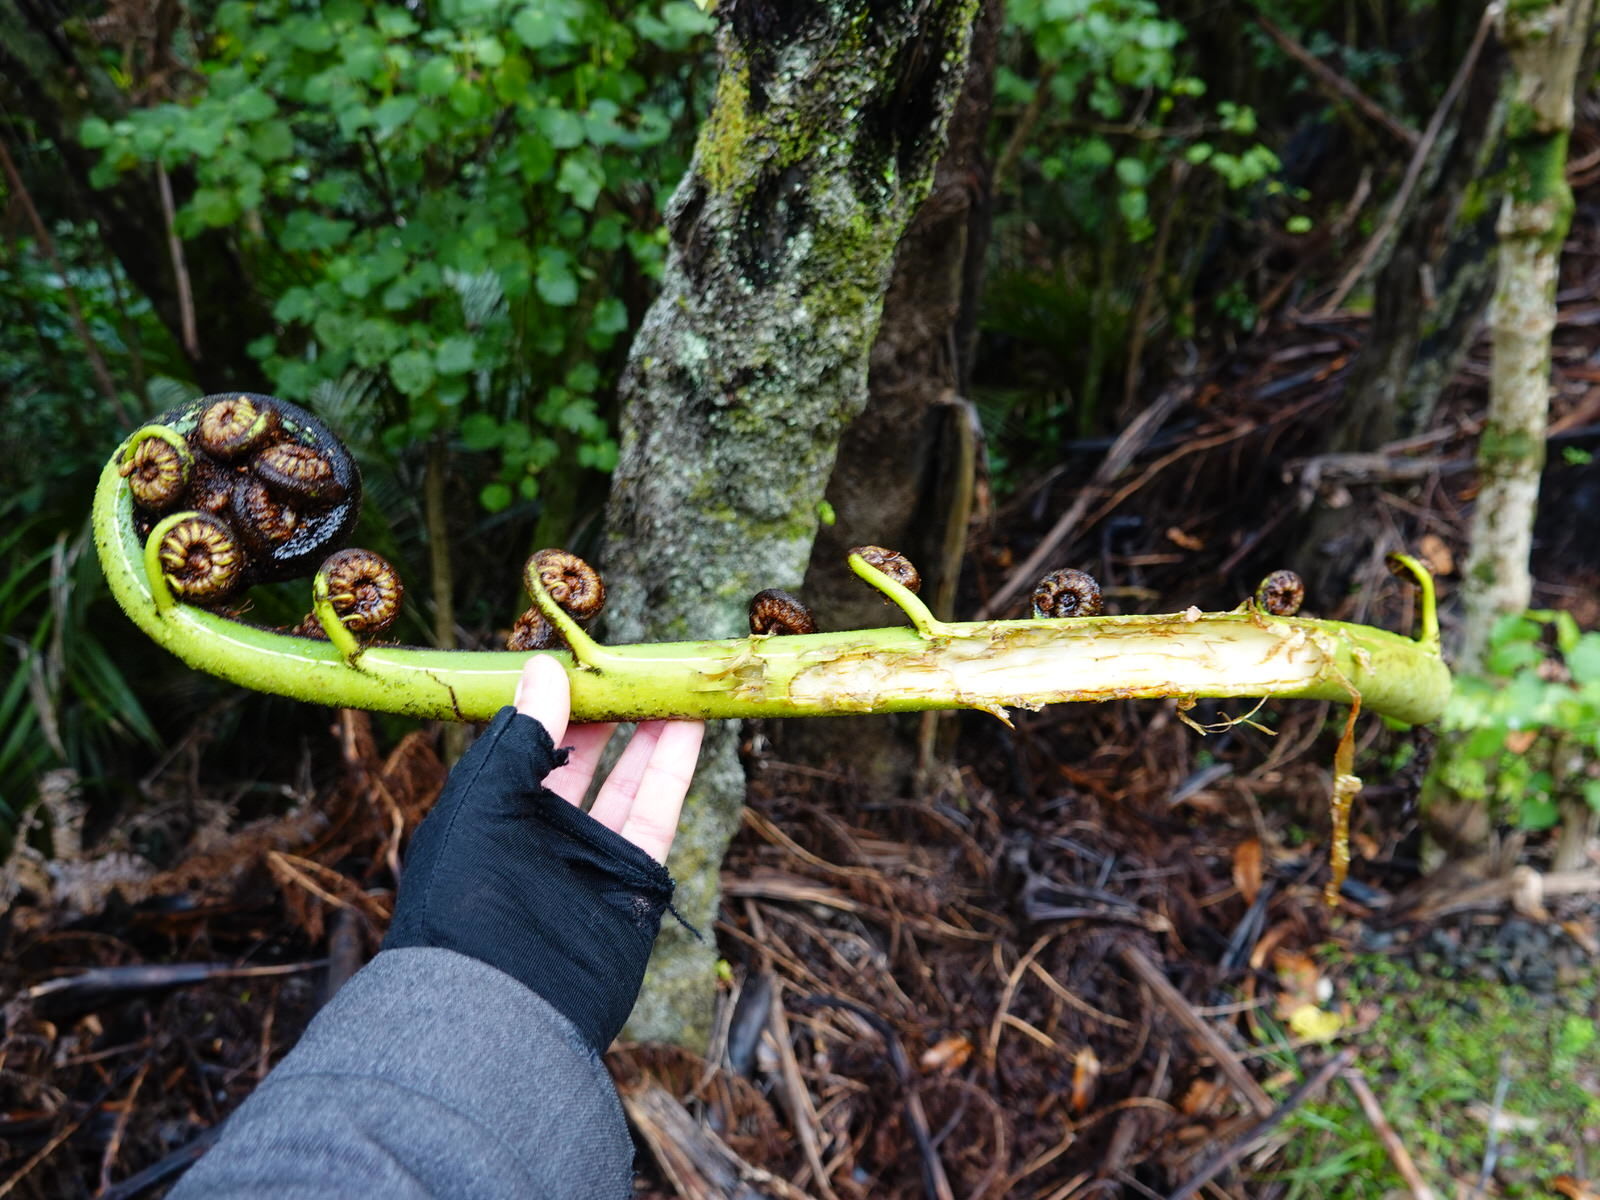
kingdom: Plantae
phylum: Tracheophyta
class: Polypodiopsida
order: Cyatheales
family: Cyatheaceae
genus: Sphaeropteris
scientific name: Sphaeropteris medullaris
